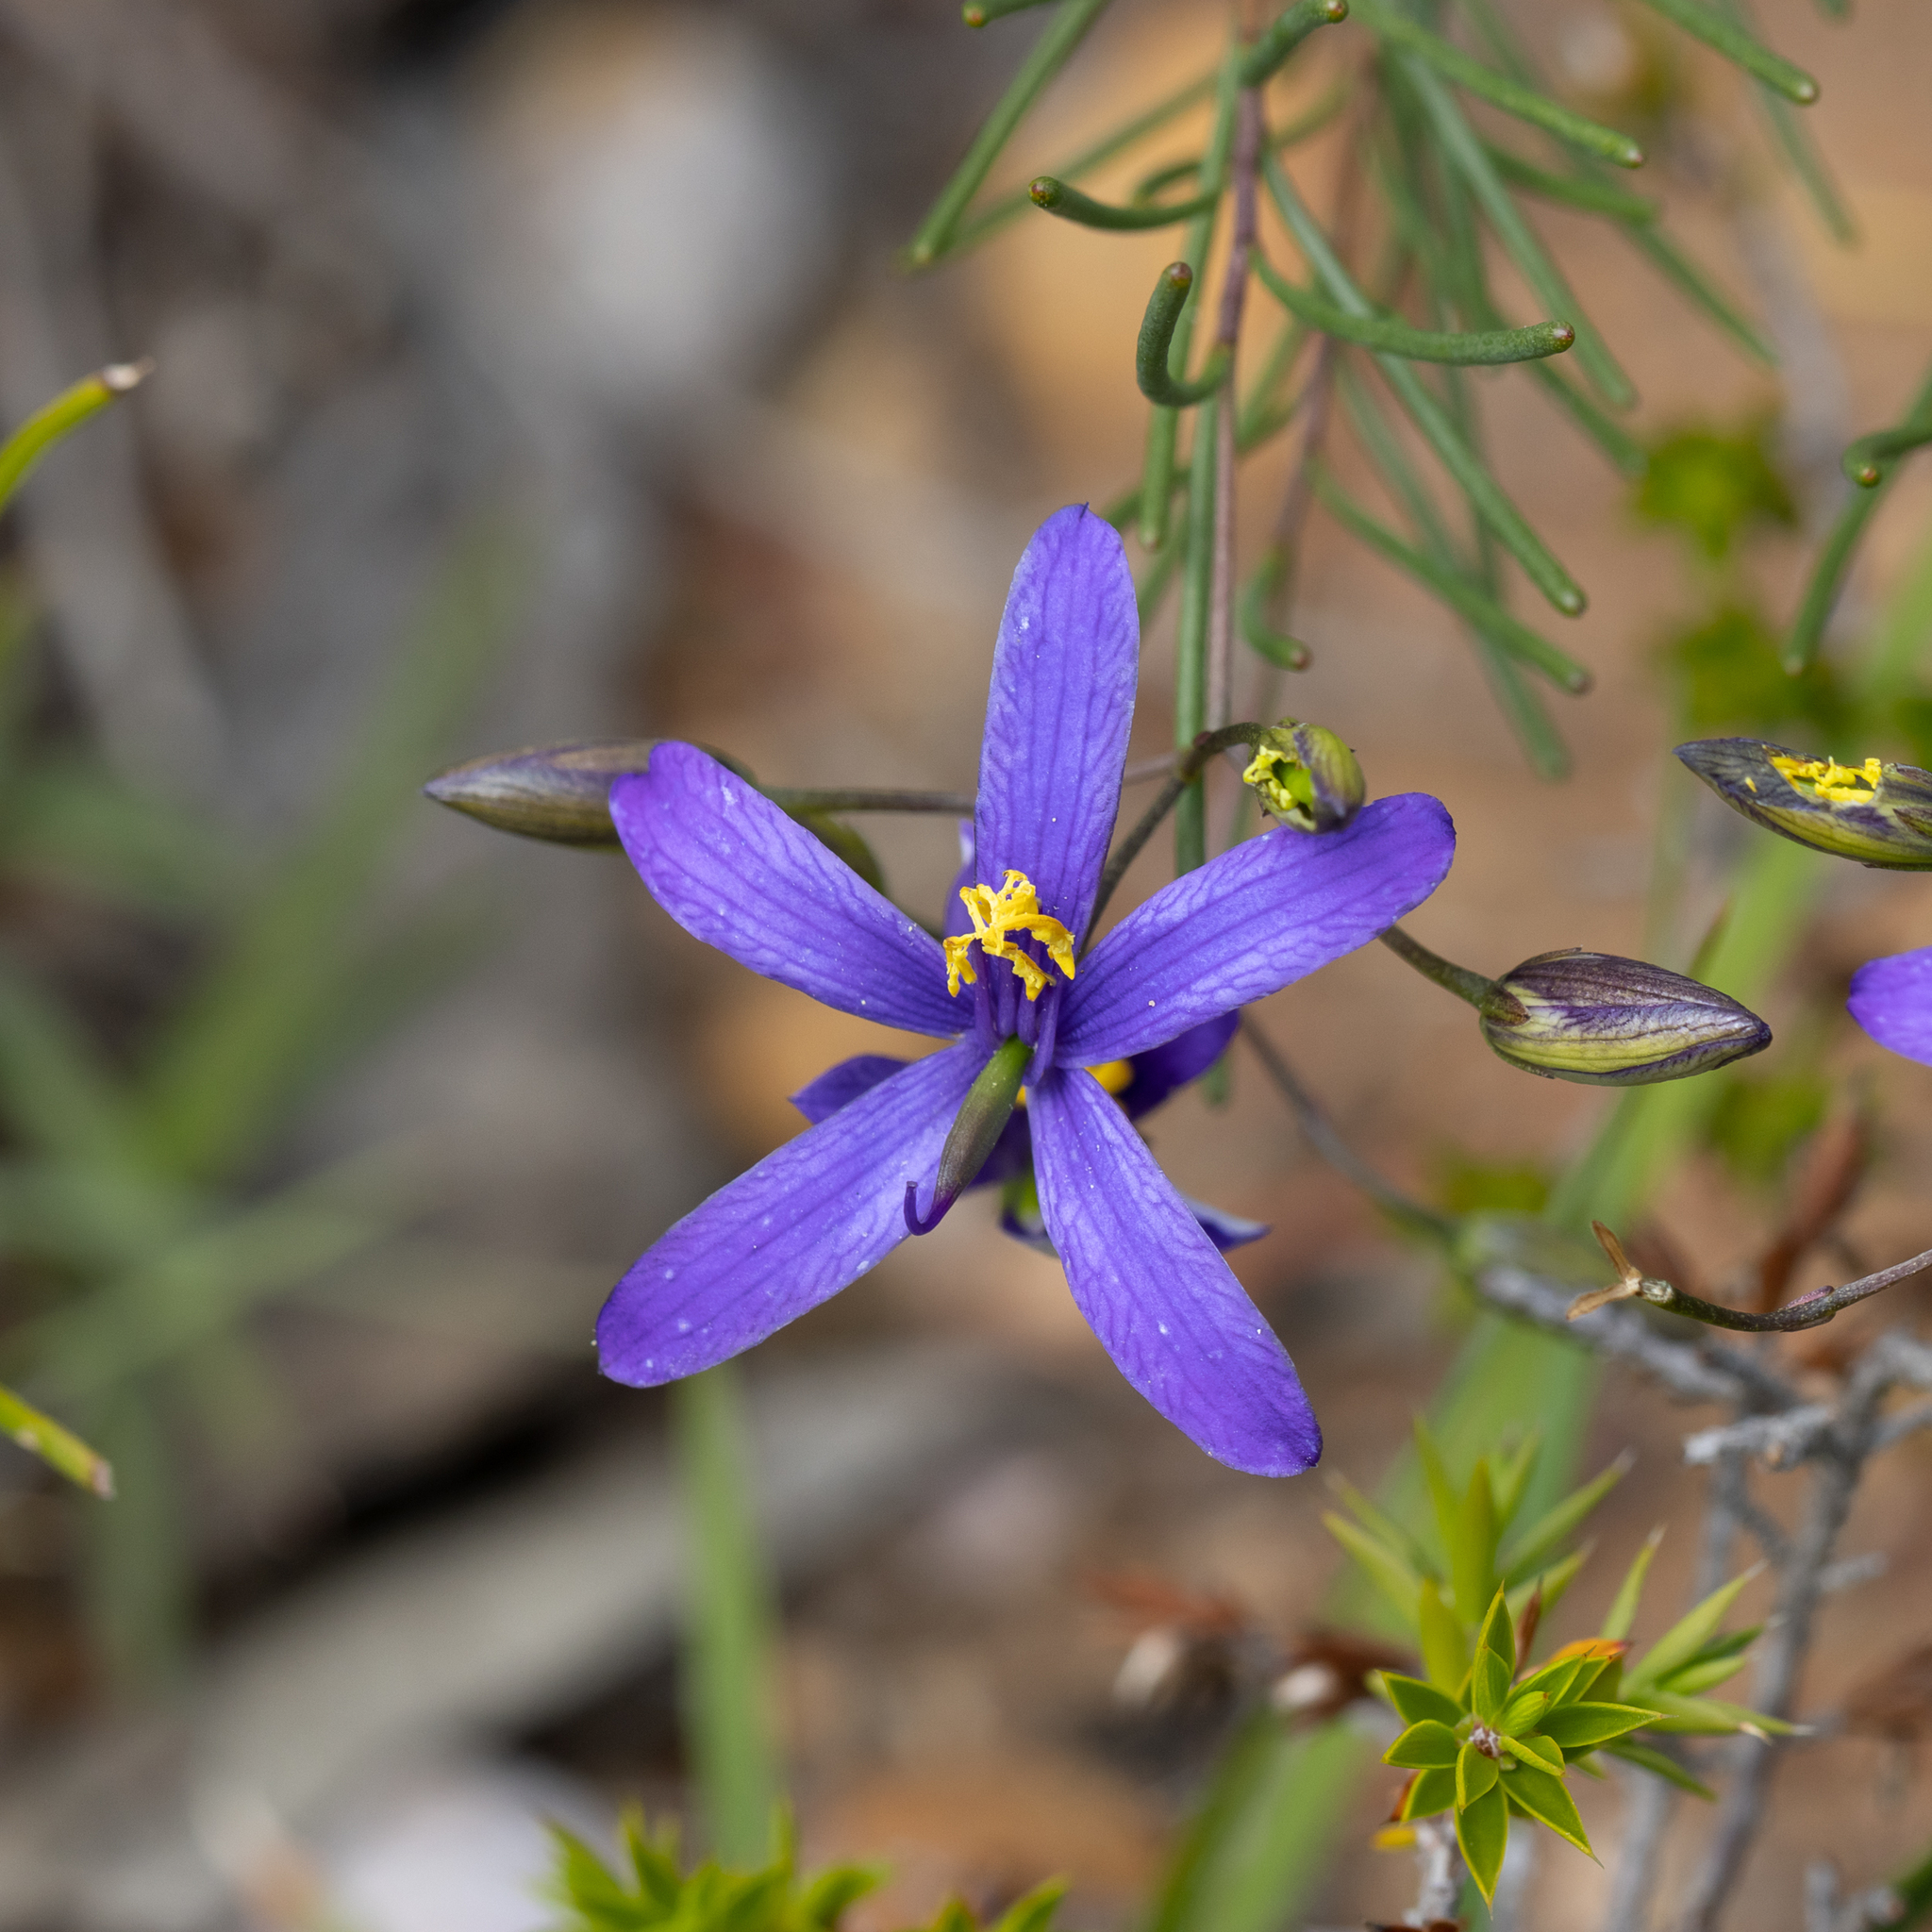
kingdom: Plantae
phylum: Tracheophyta
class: Magnoliopsida
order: Apiales
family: Pittosporaceae
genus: Cheiranthera
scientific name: Cheiranthera filifolia
